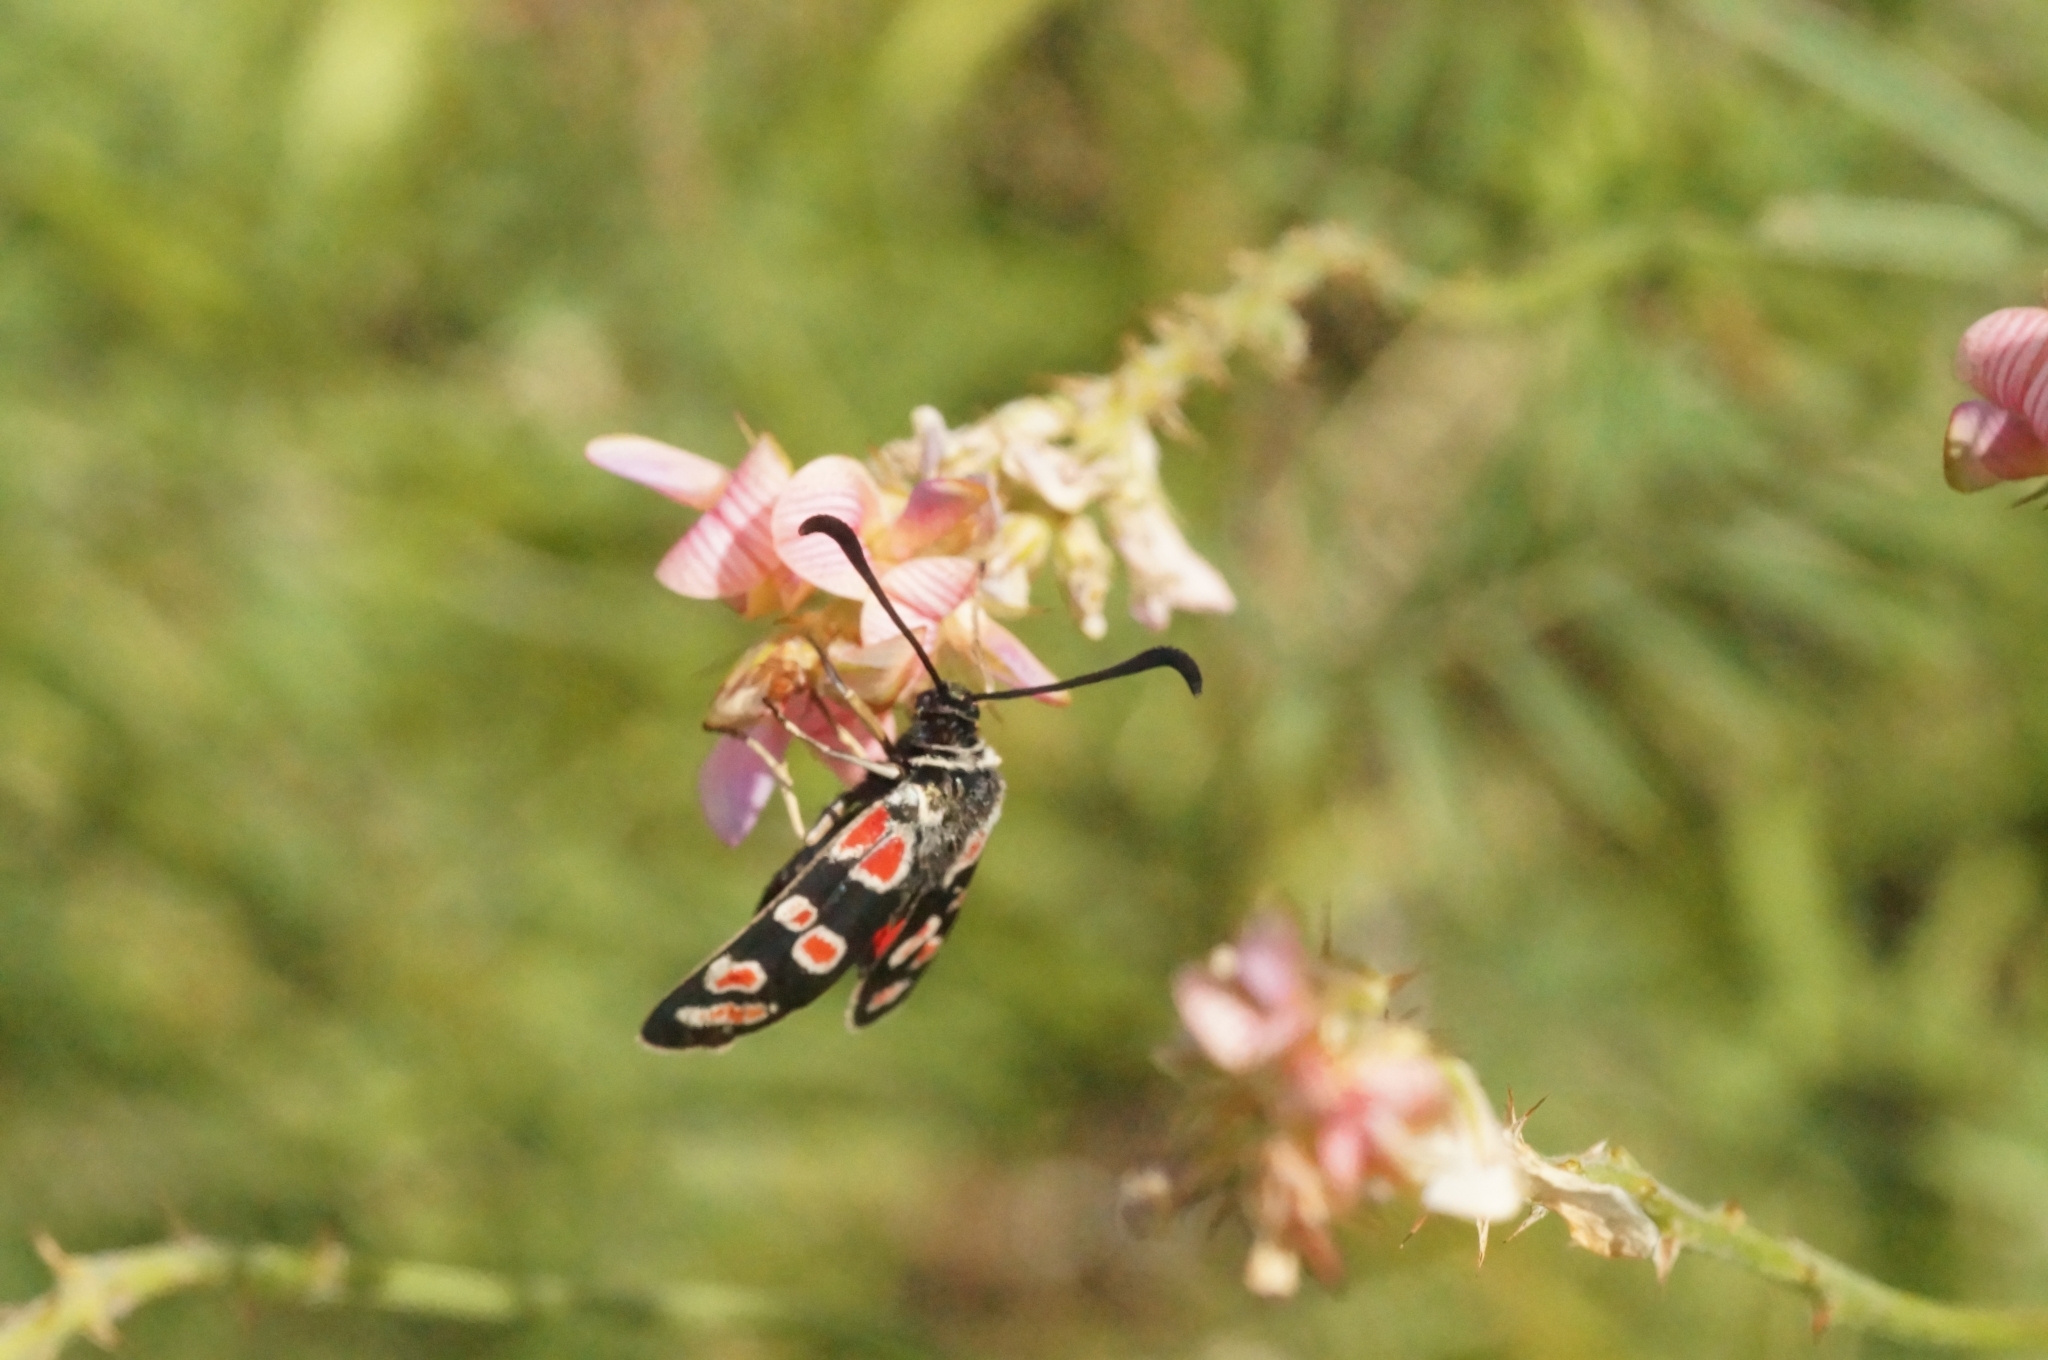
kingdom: Animalia
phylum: Arthropoda
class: Insecta
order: Lepidoptera
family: Zygaenidae
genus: Zygaena
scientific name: Zygaena carniolica
